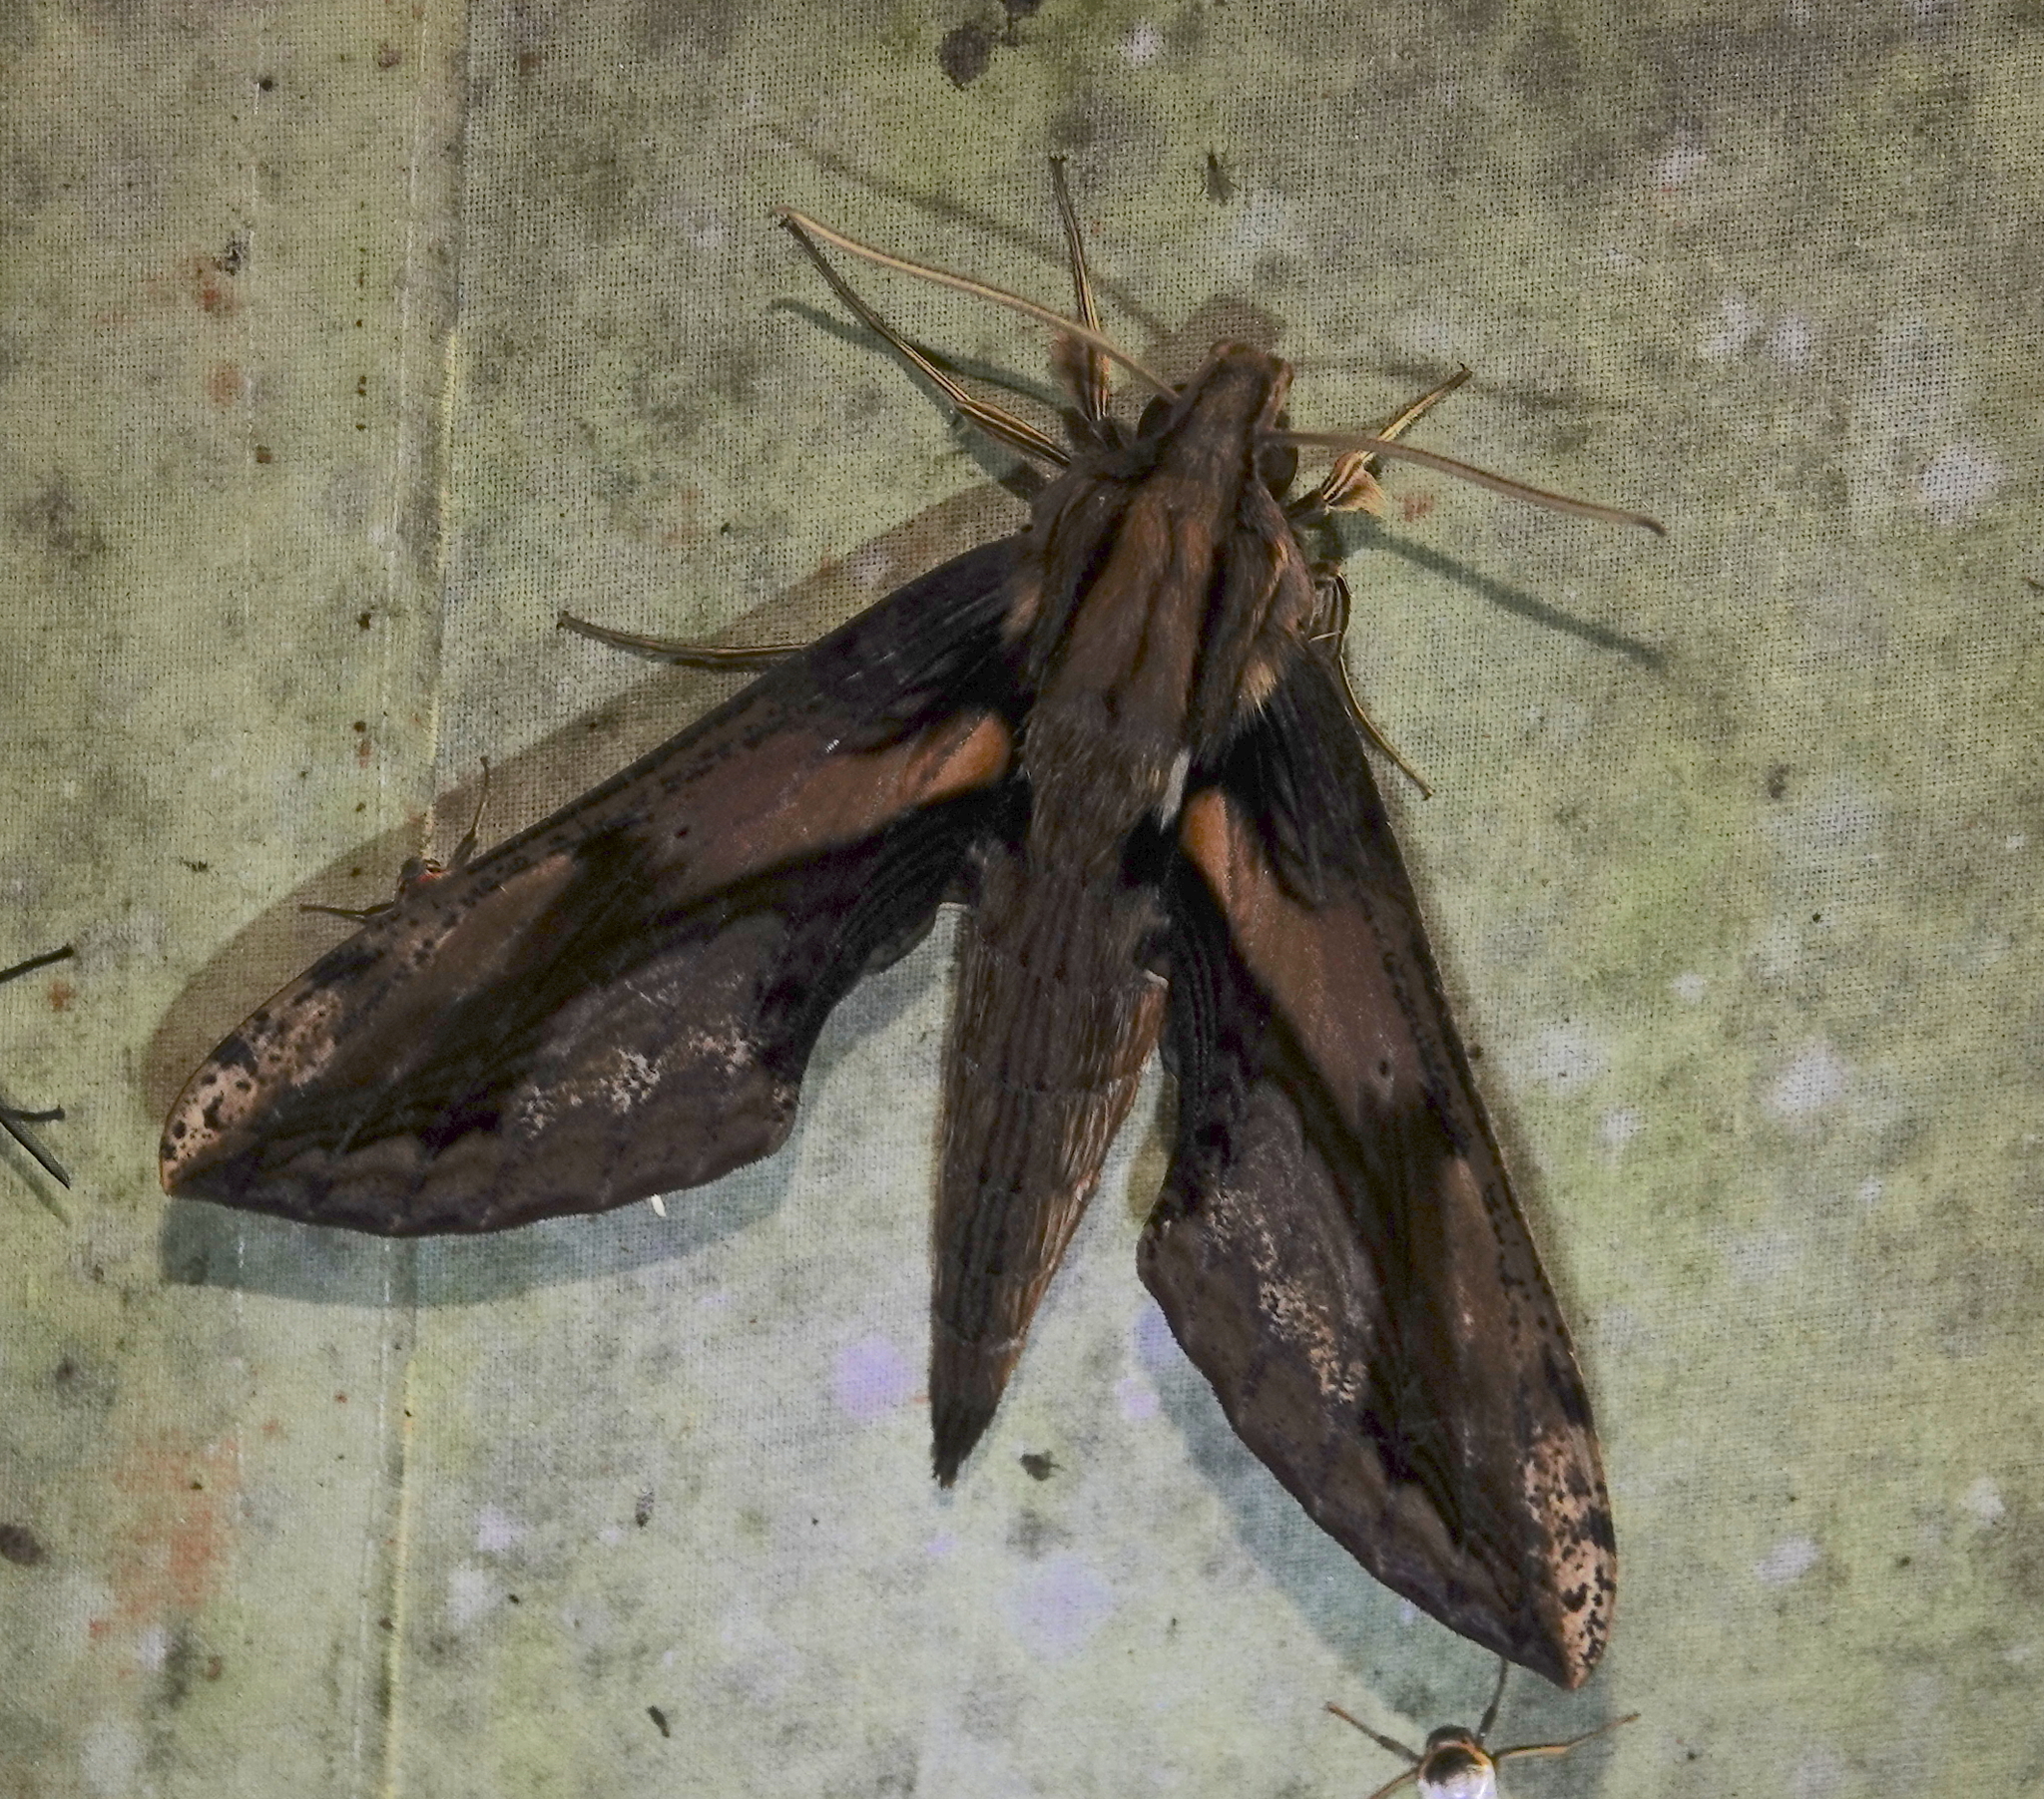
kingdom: Animalia
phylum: Arthropoda
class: Insecta
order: Lepidoptera
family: Sphingidae
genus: Xylophanes
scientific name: Xylophanes ceratomioides
